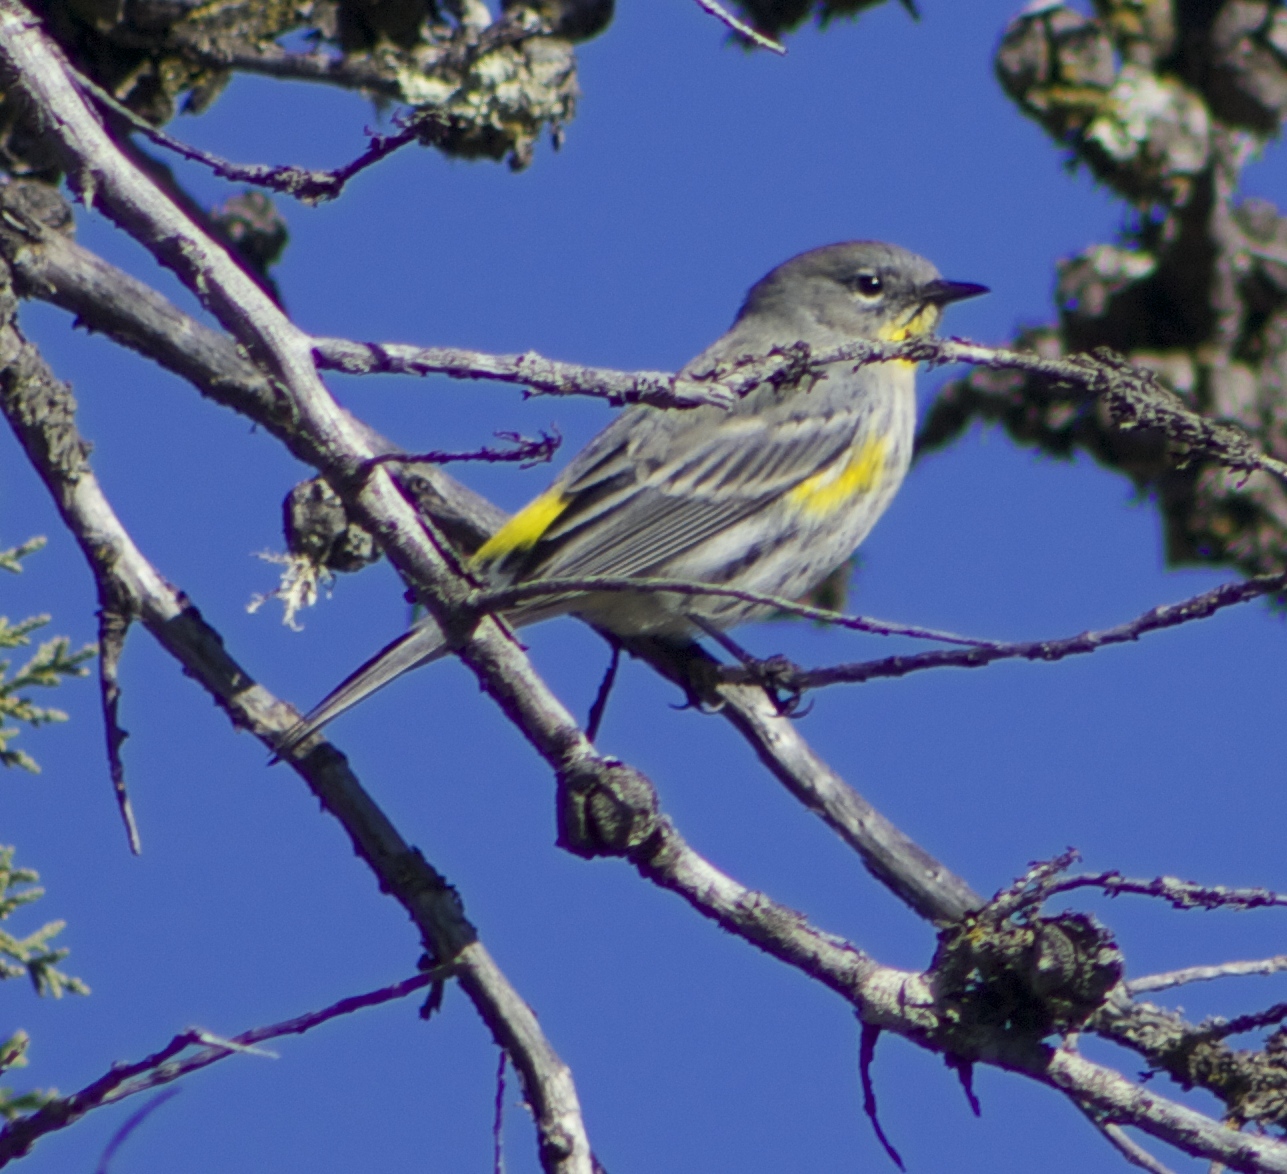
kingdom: Animalia
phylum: Chordata
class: Aves
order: Passeriformes
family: Parulidae
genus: Setophaga
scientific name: Setophaga auduboni
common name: Audubon's warbler
